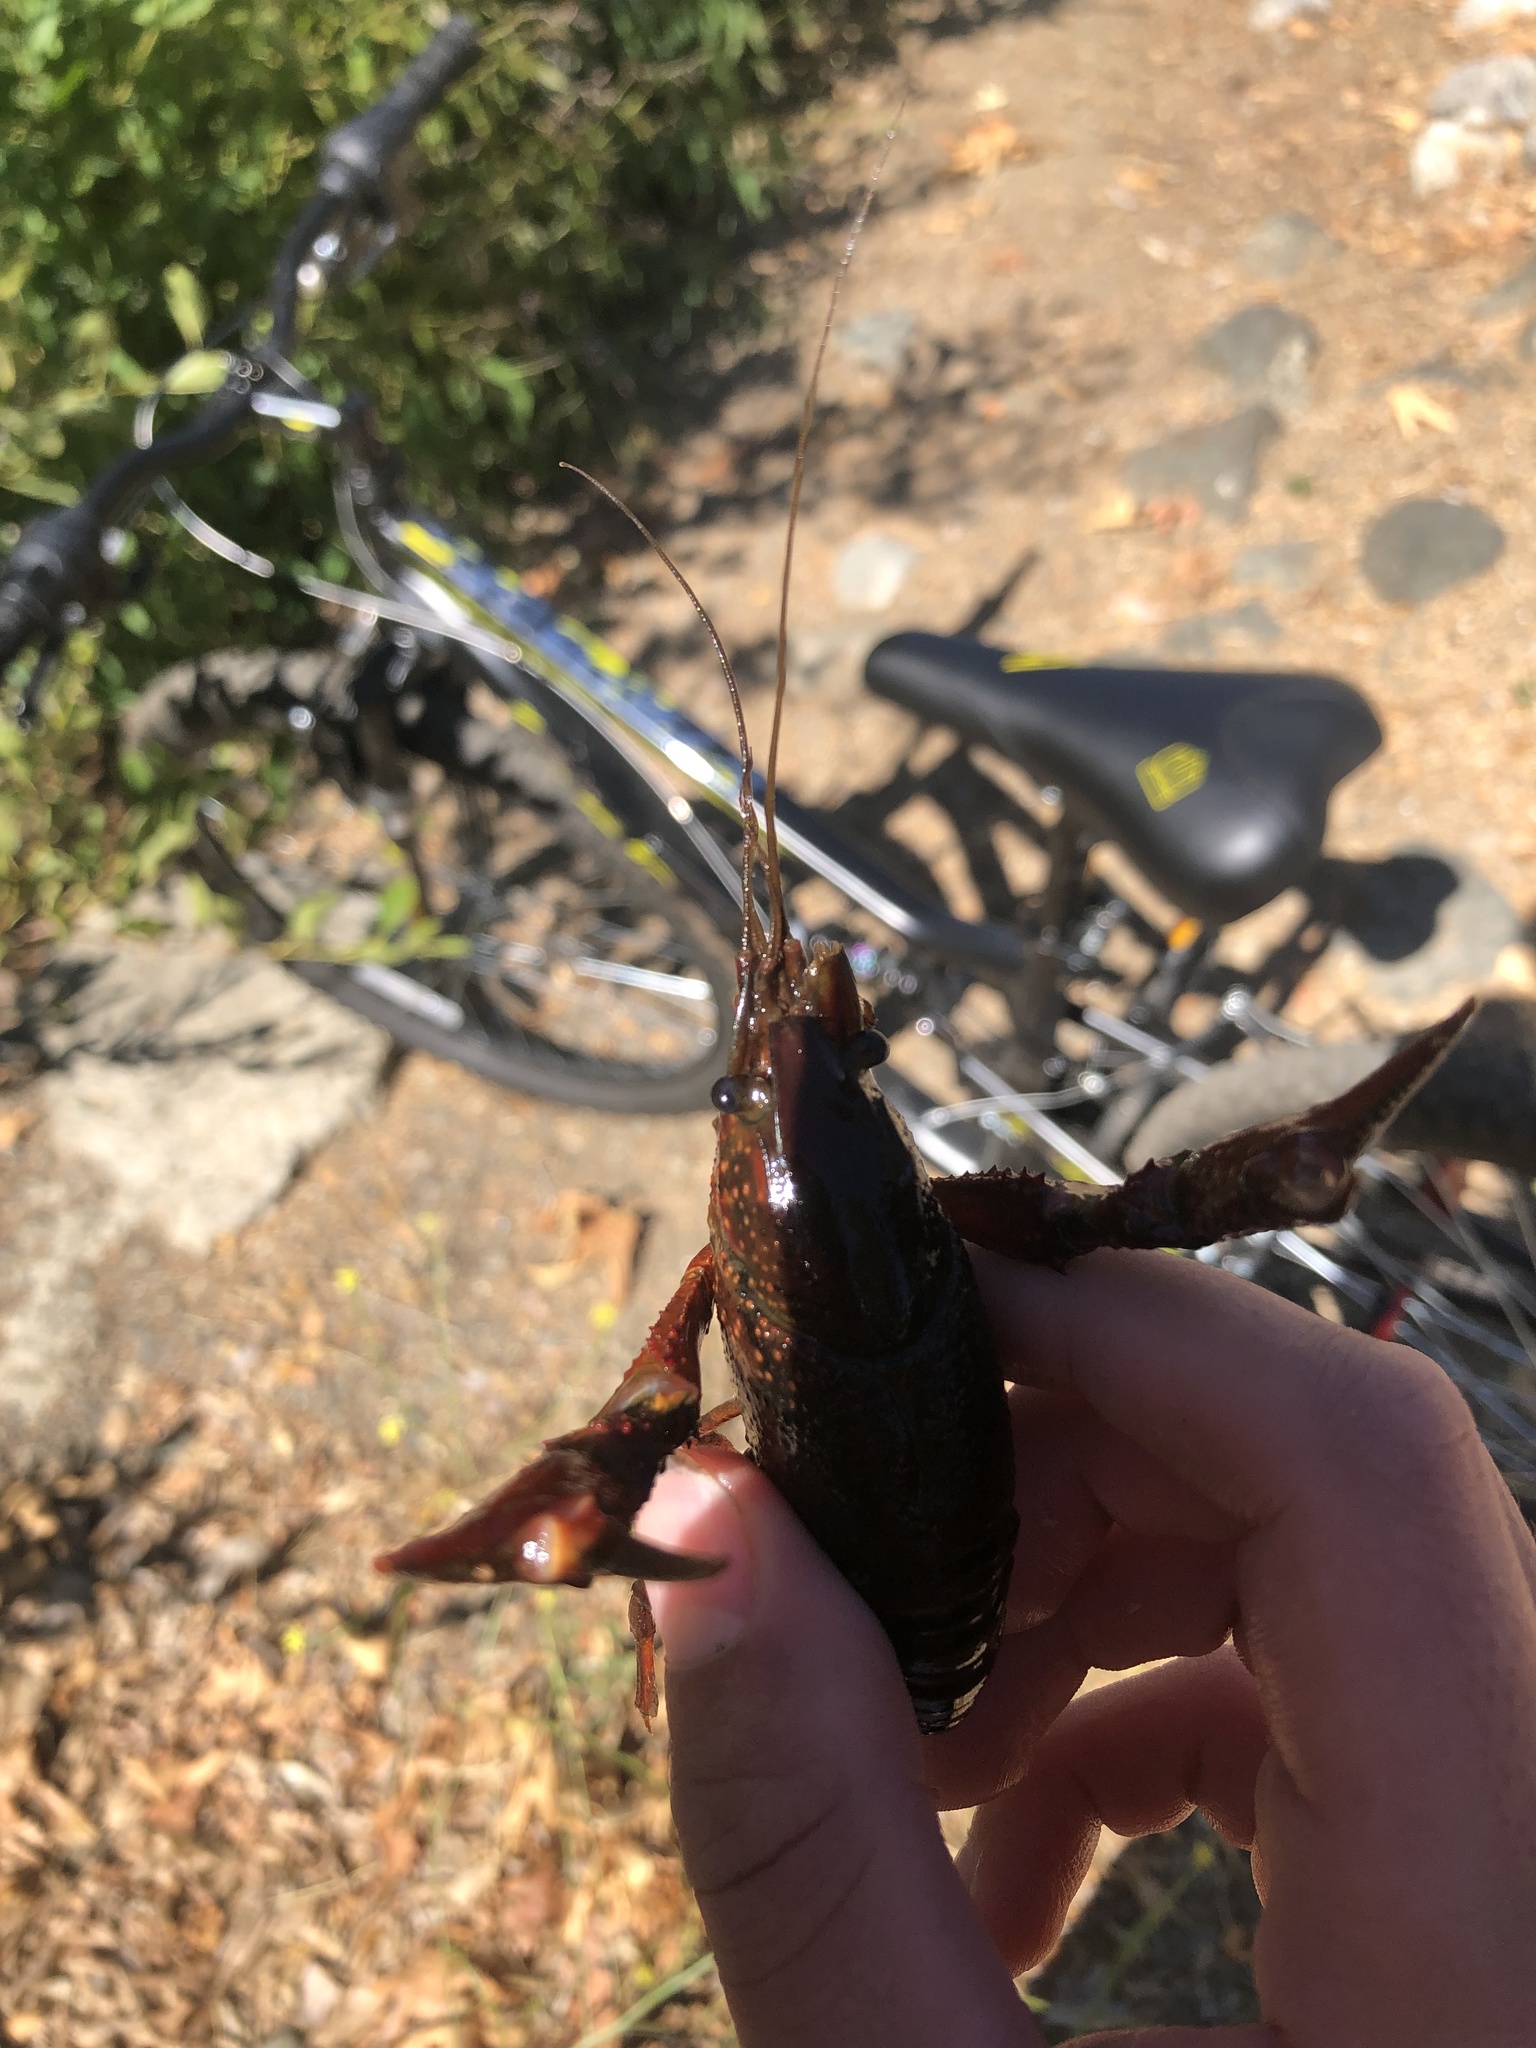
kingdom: Animalia
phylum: Arthropoda
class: Malacostraca
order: Decapoda
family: Cambaridae
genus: Procambarus
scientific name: Procambarus clarkii
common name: Red swamp crayfish
